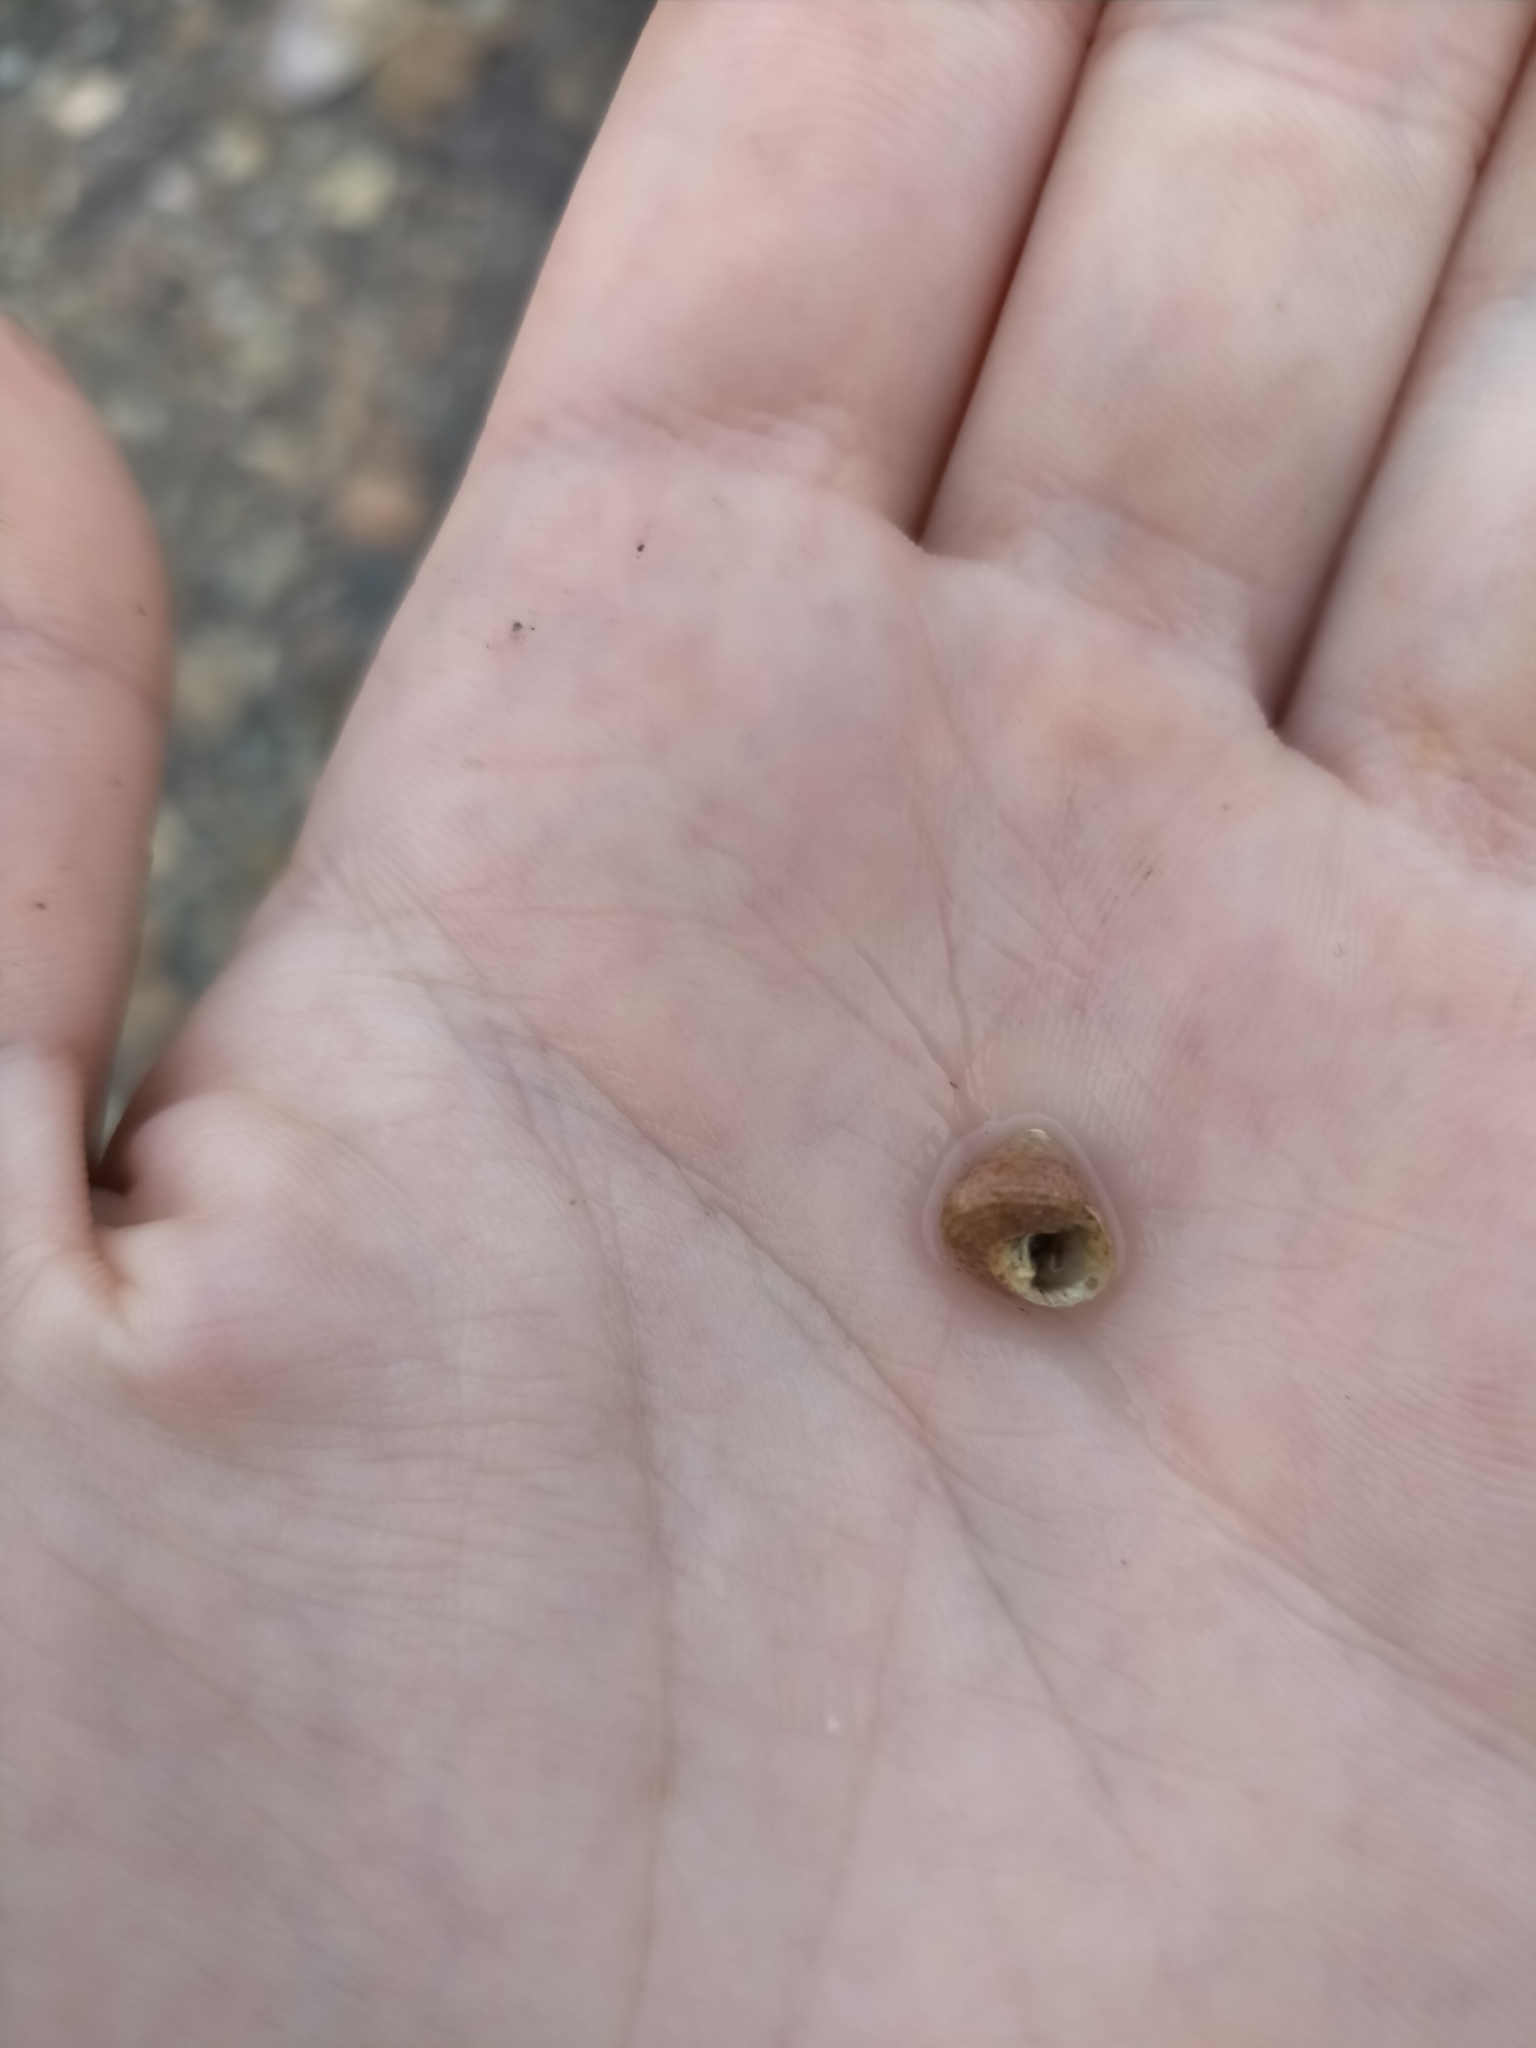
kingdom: Animalia
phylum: Mollusca
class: Gastropoda
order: Trochida
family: Trochidae
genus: Clanculus
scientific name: Clanculus dunkeri
